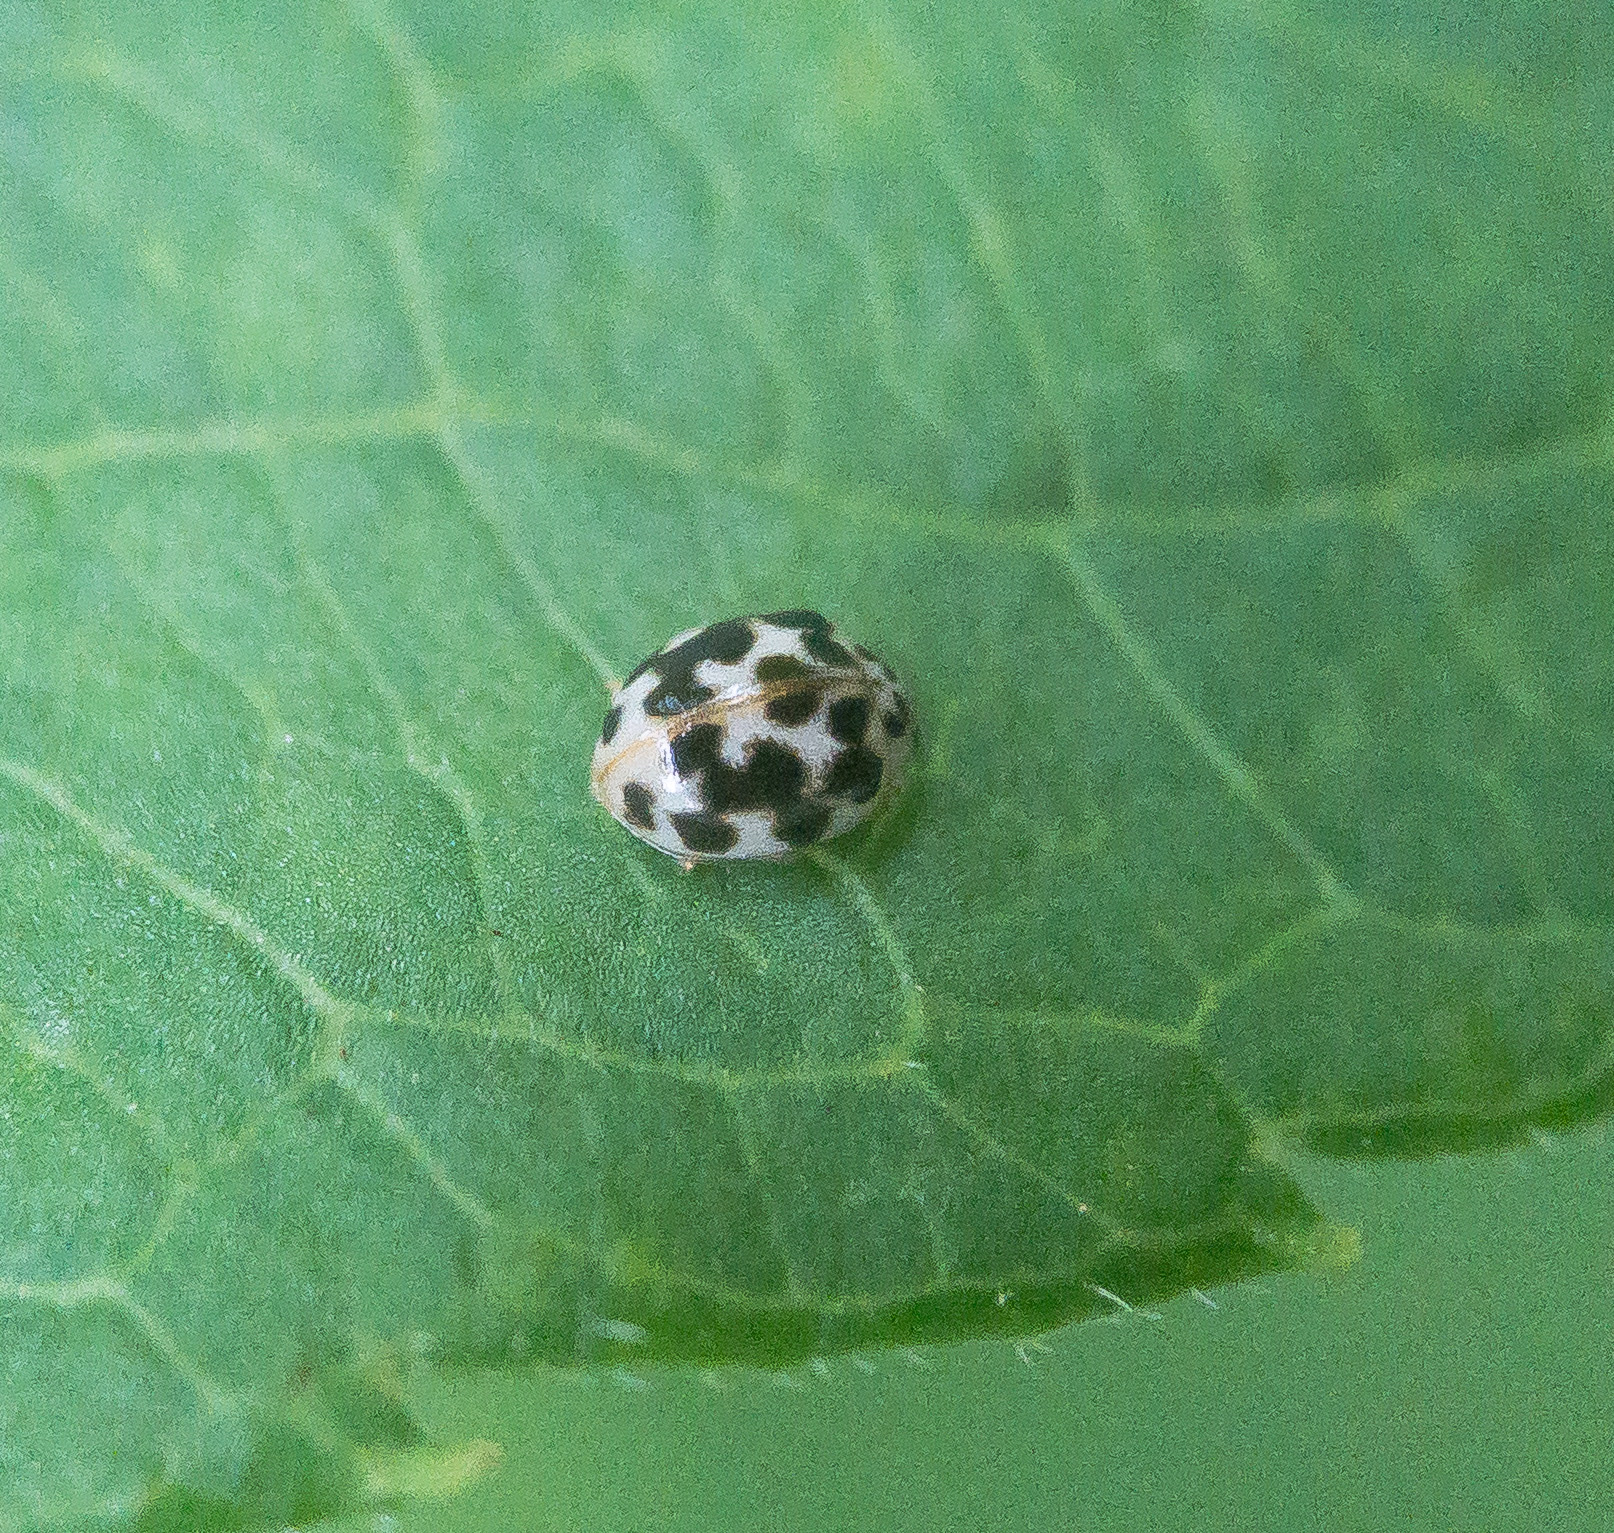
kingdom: Animalia
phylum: Arthropoda
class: Insecta
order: Coleoptera
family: Coccinellidae
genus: Psyllobora
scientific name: Psyllobora vigintimaculata
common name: Ladybird beetle
